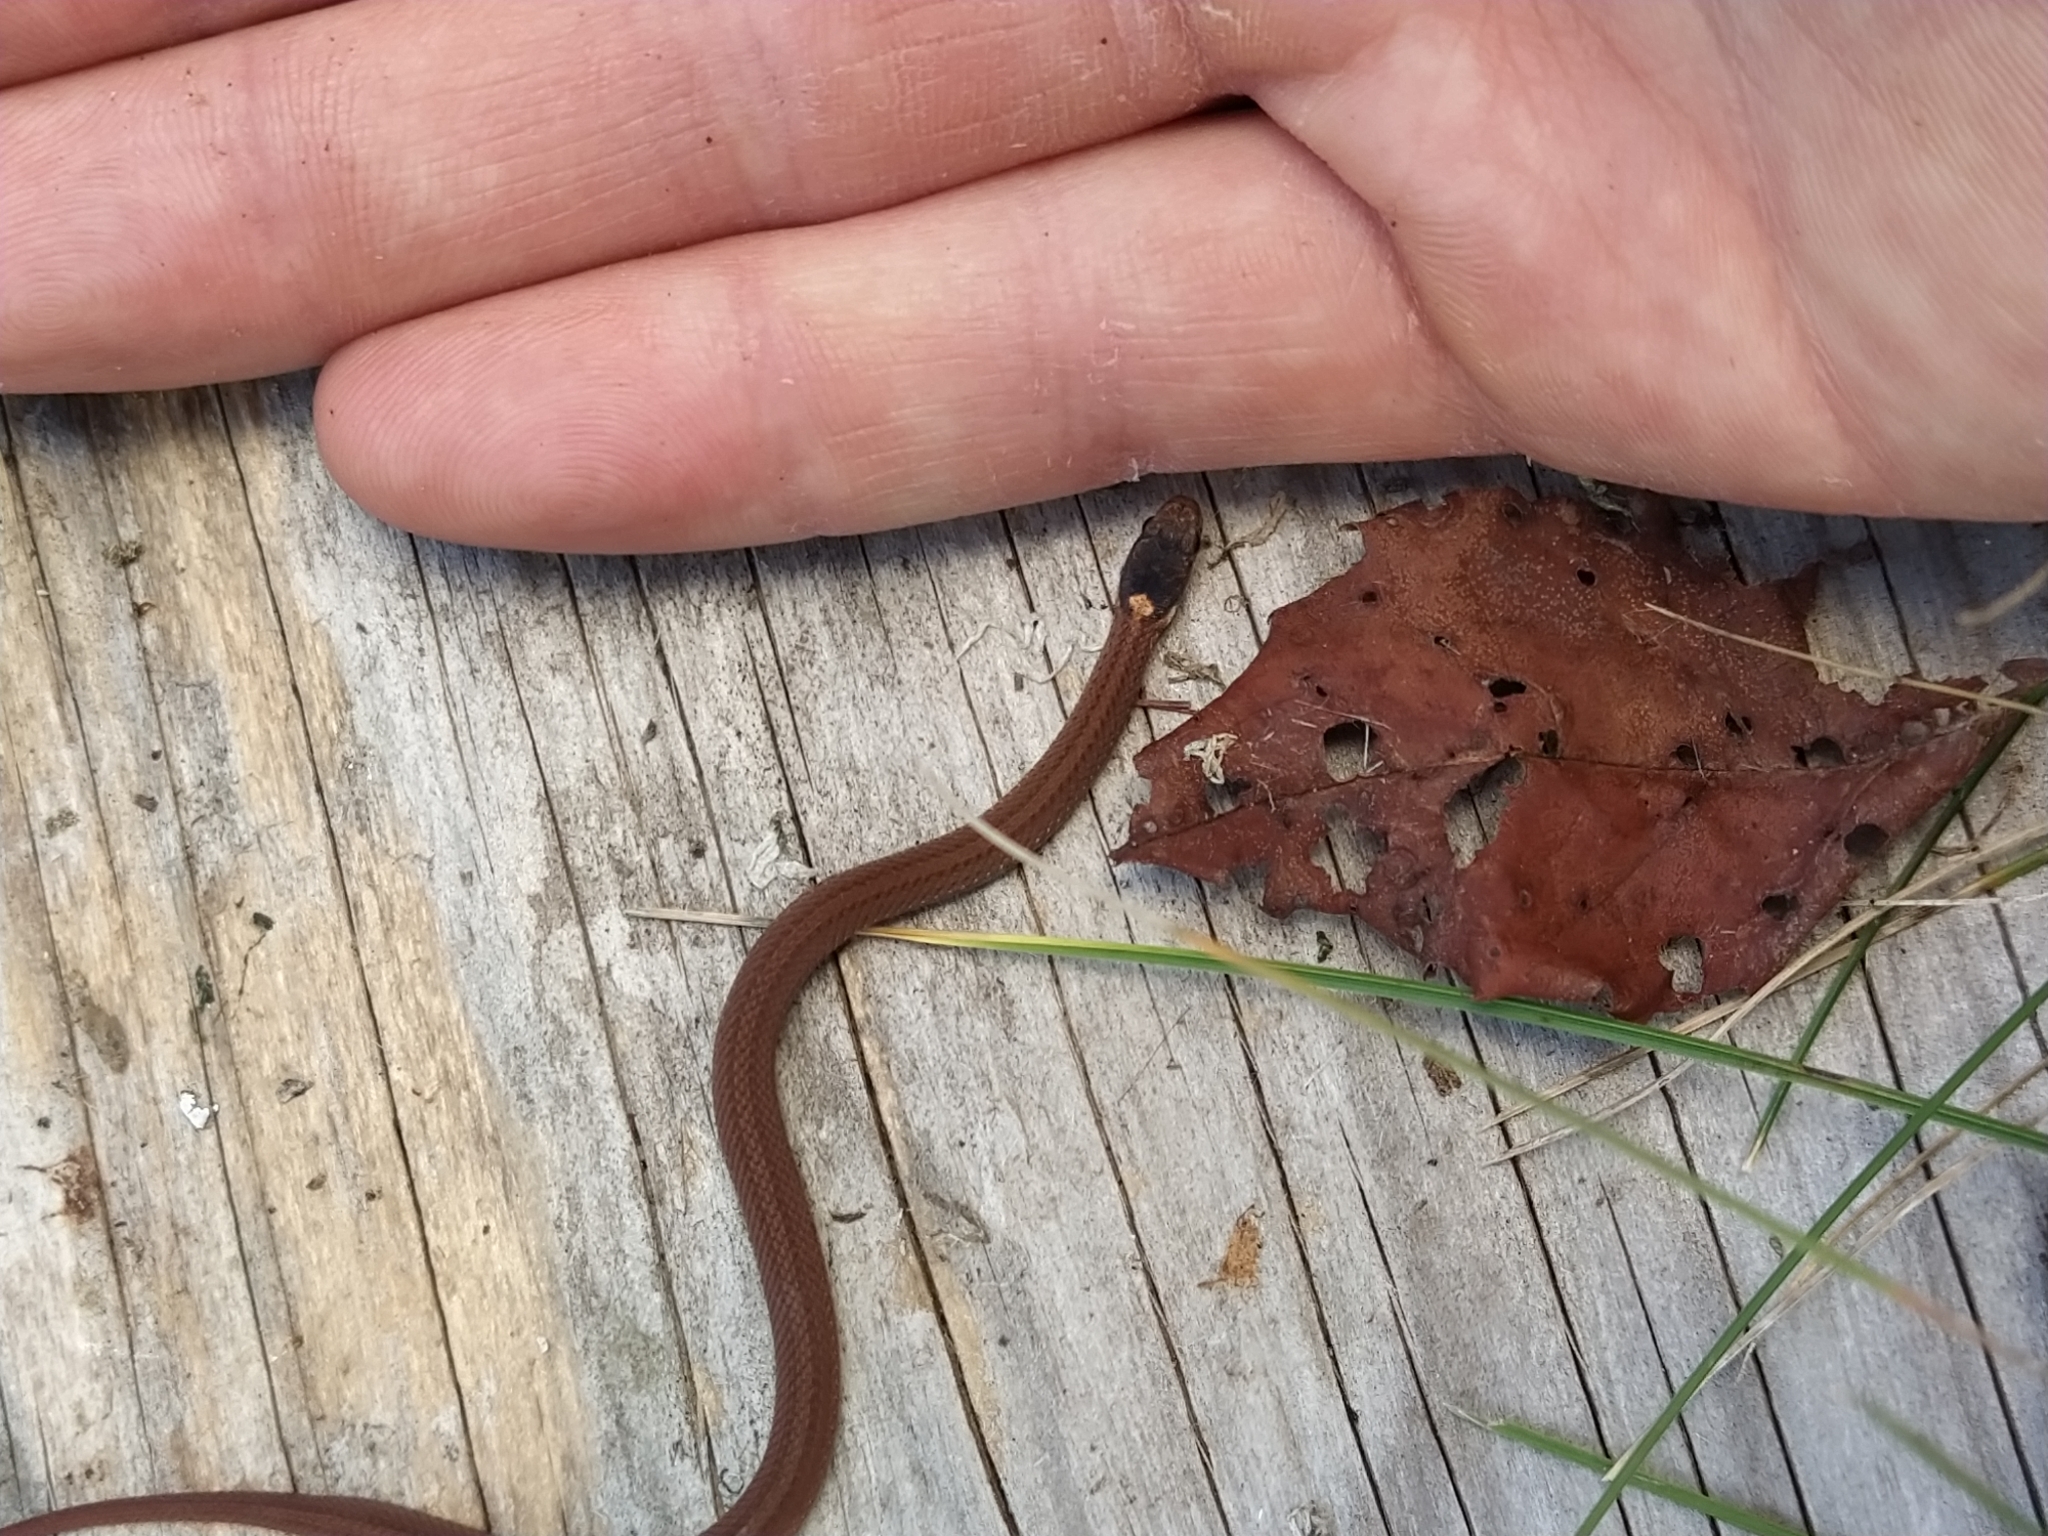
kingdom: Animalia
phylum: Chordata
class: Squamata
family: Colubridae
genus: Storeria
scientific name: Storeria occipitomaculata
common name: Redbelly snake
